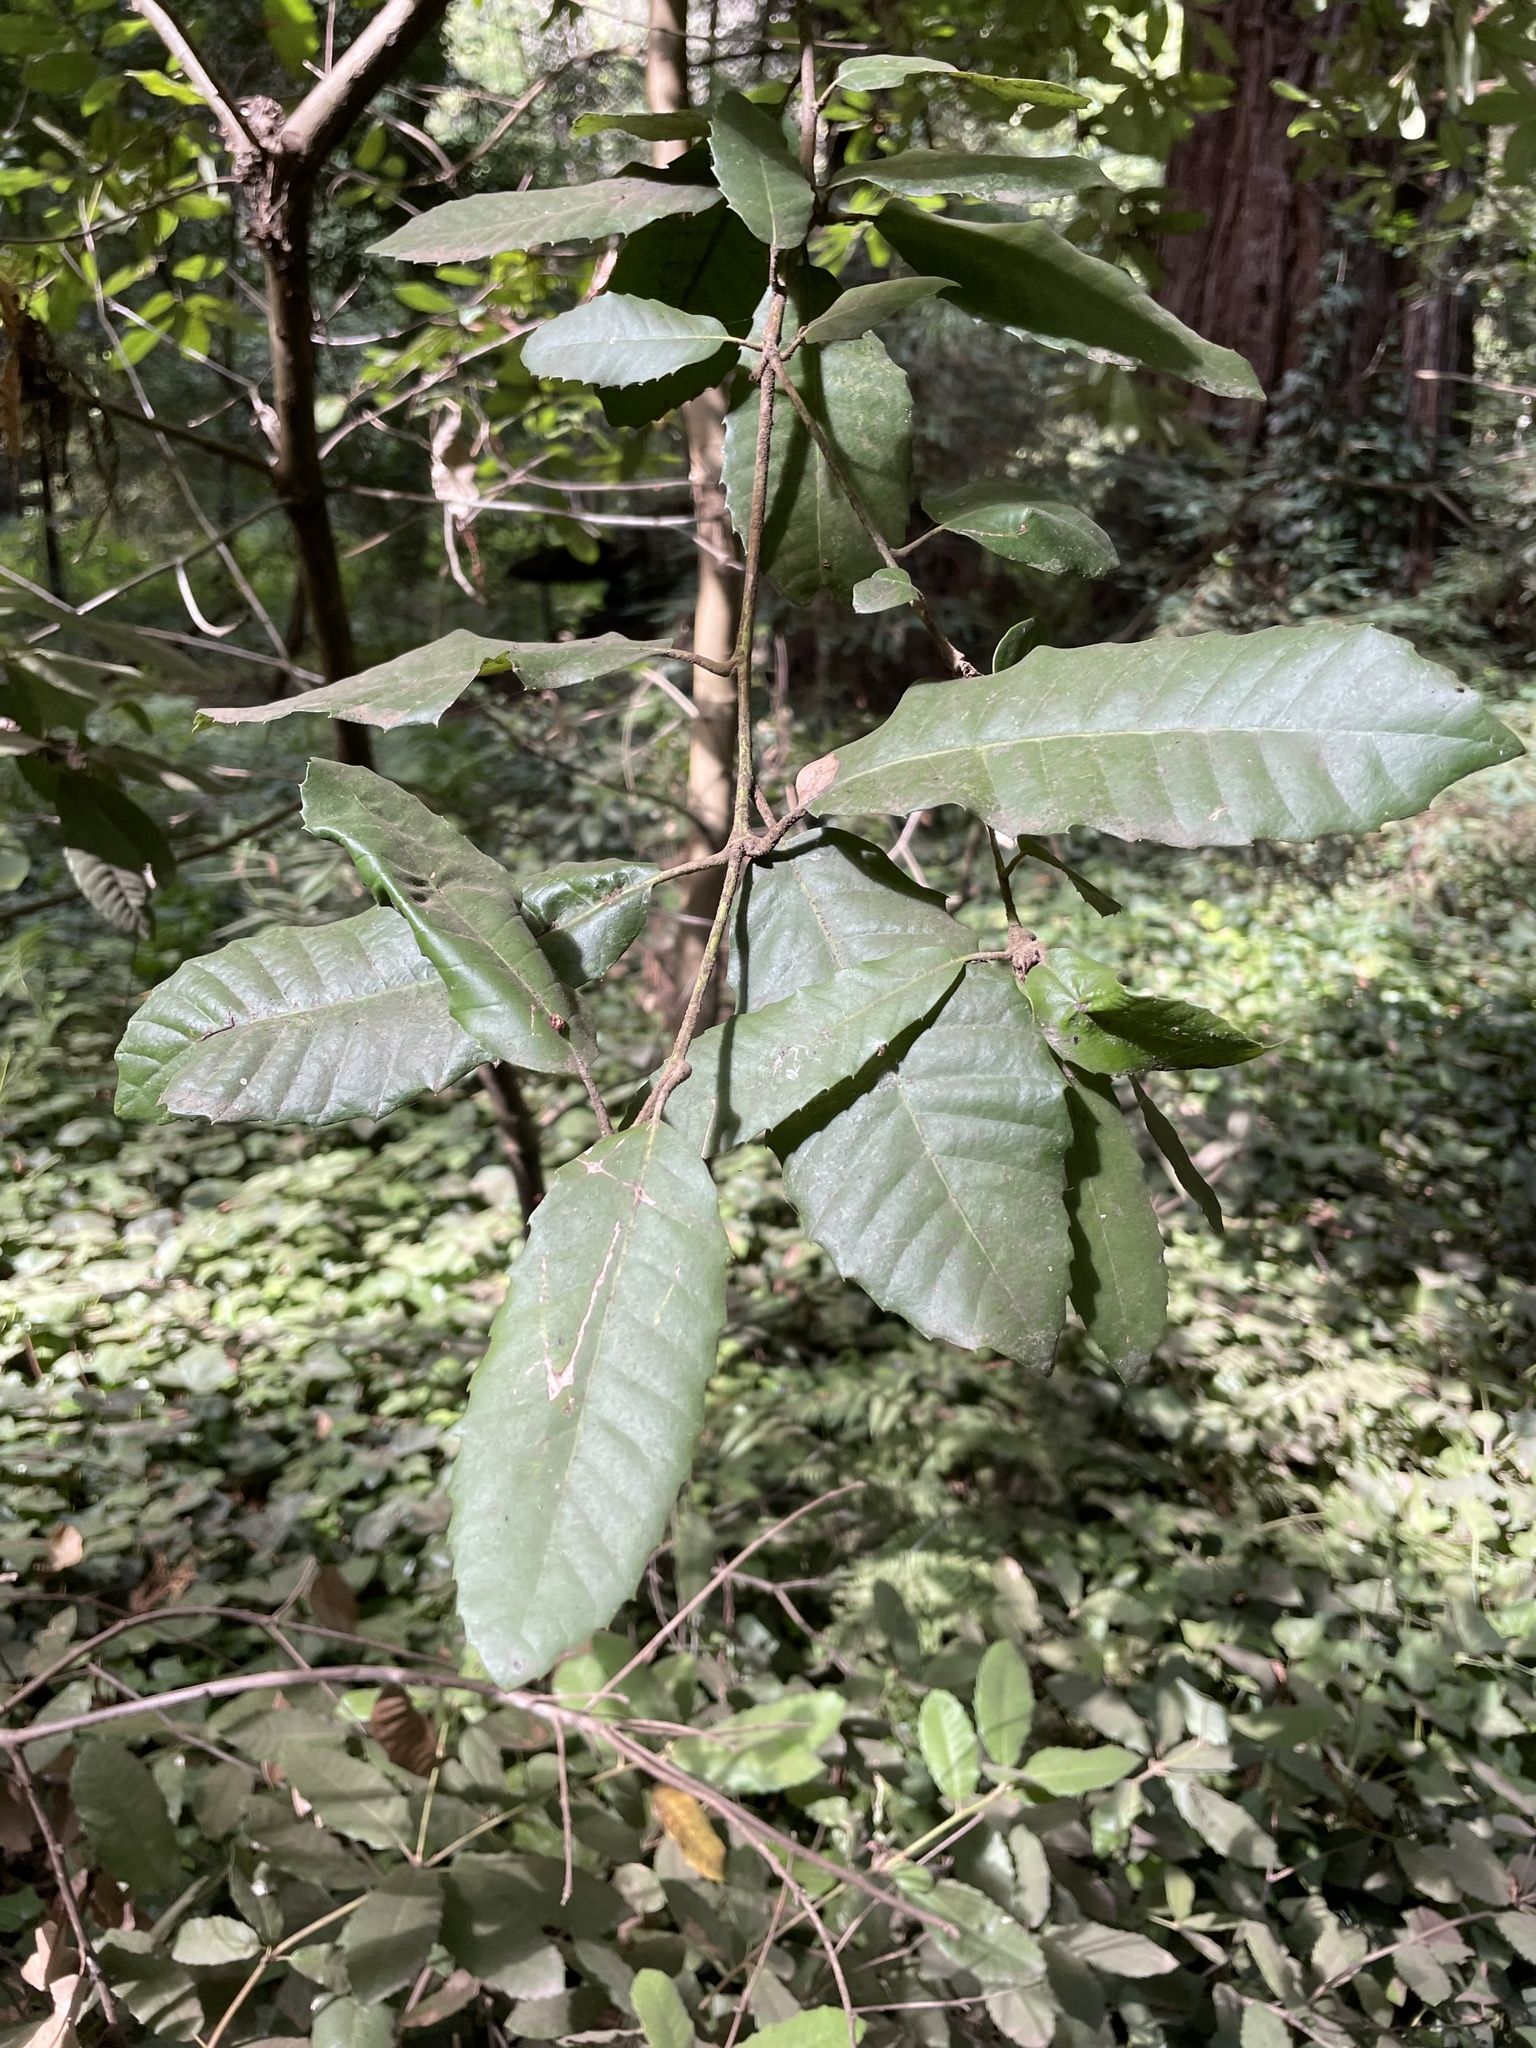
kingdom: Plantae
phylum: Tracheophyta
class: Magnoliopsida
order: Fagales
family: Fagaceae
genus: Notholithocarpus
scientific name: Notholithocarpus densiflorus
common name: Tan bark oak
